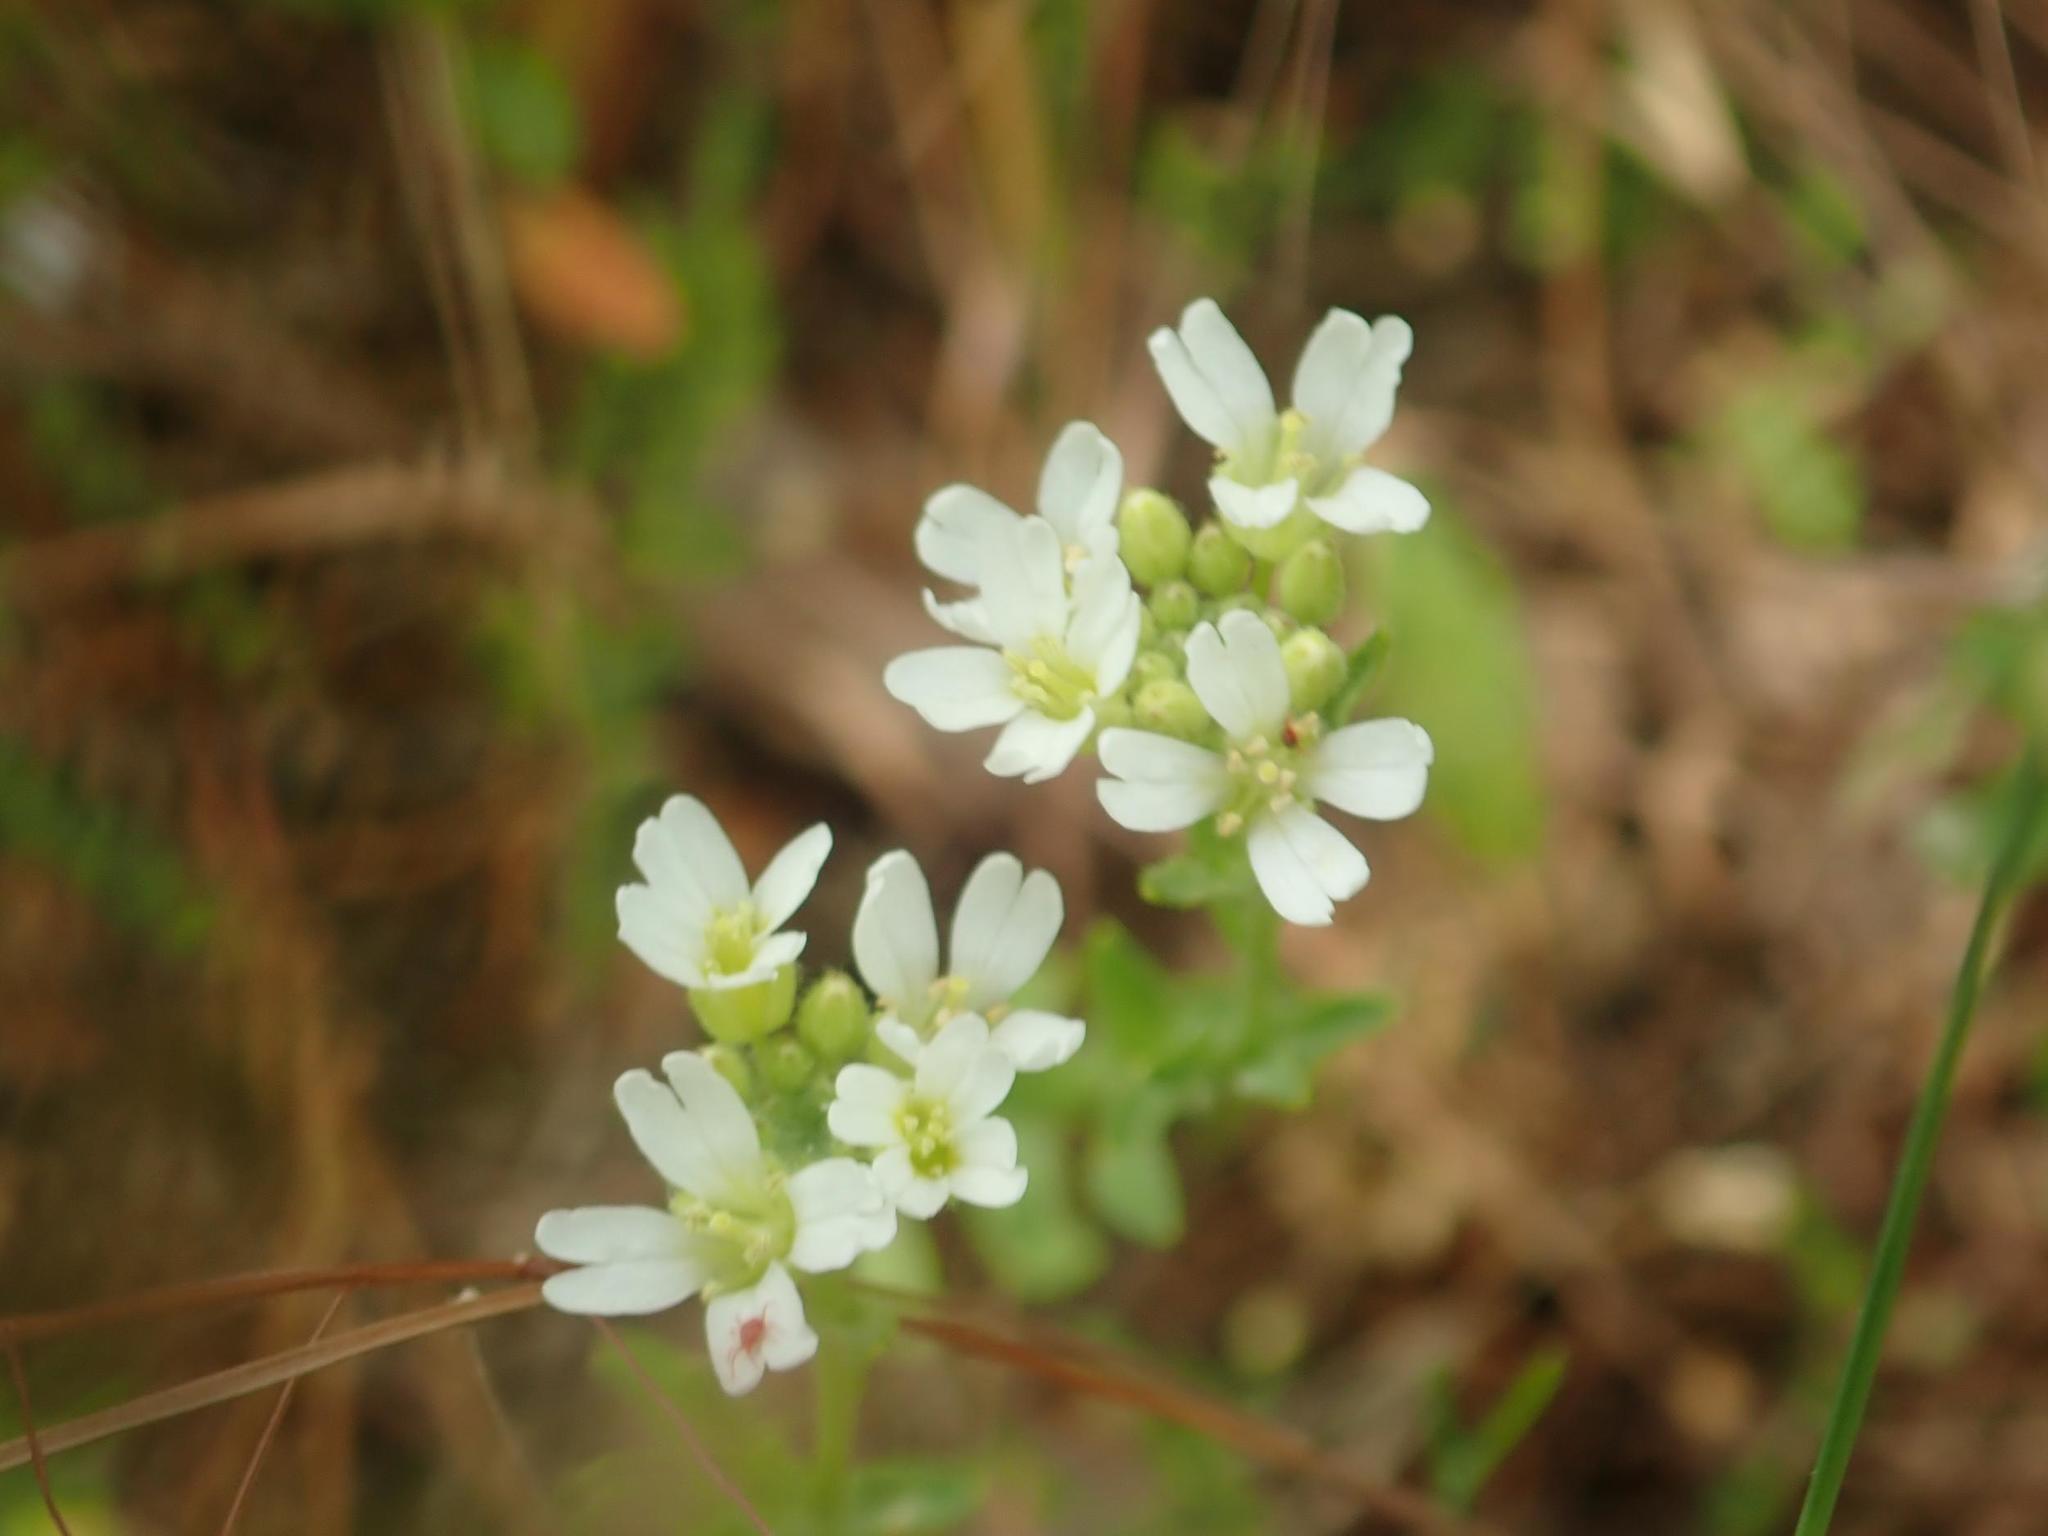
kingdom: Plantae
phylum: Tracheophyta
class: Magnoliopsida
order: Brassicales
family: Brassicaceae
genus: Berteroa
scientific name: Berteroa incana
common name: Hoary alison
